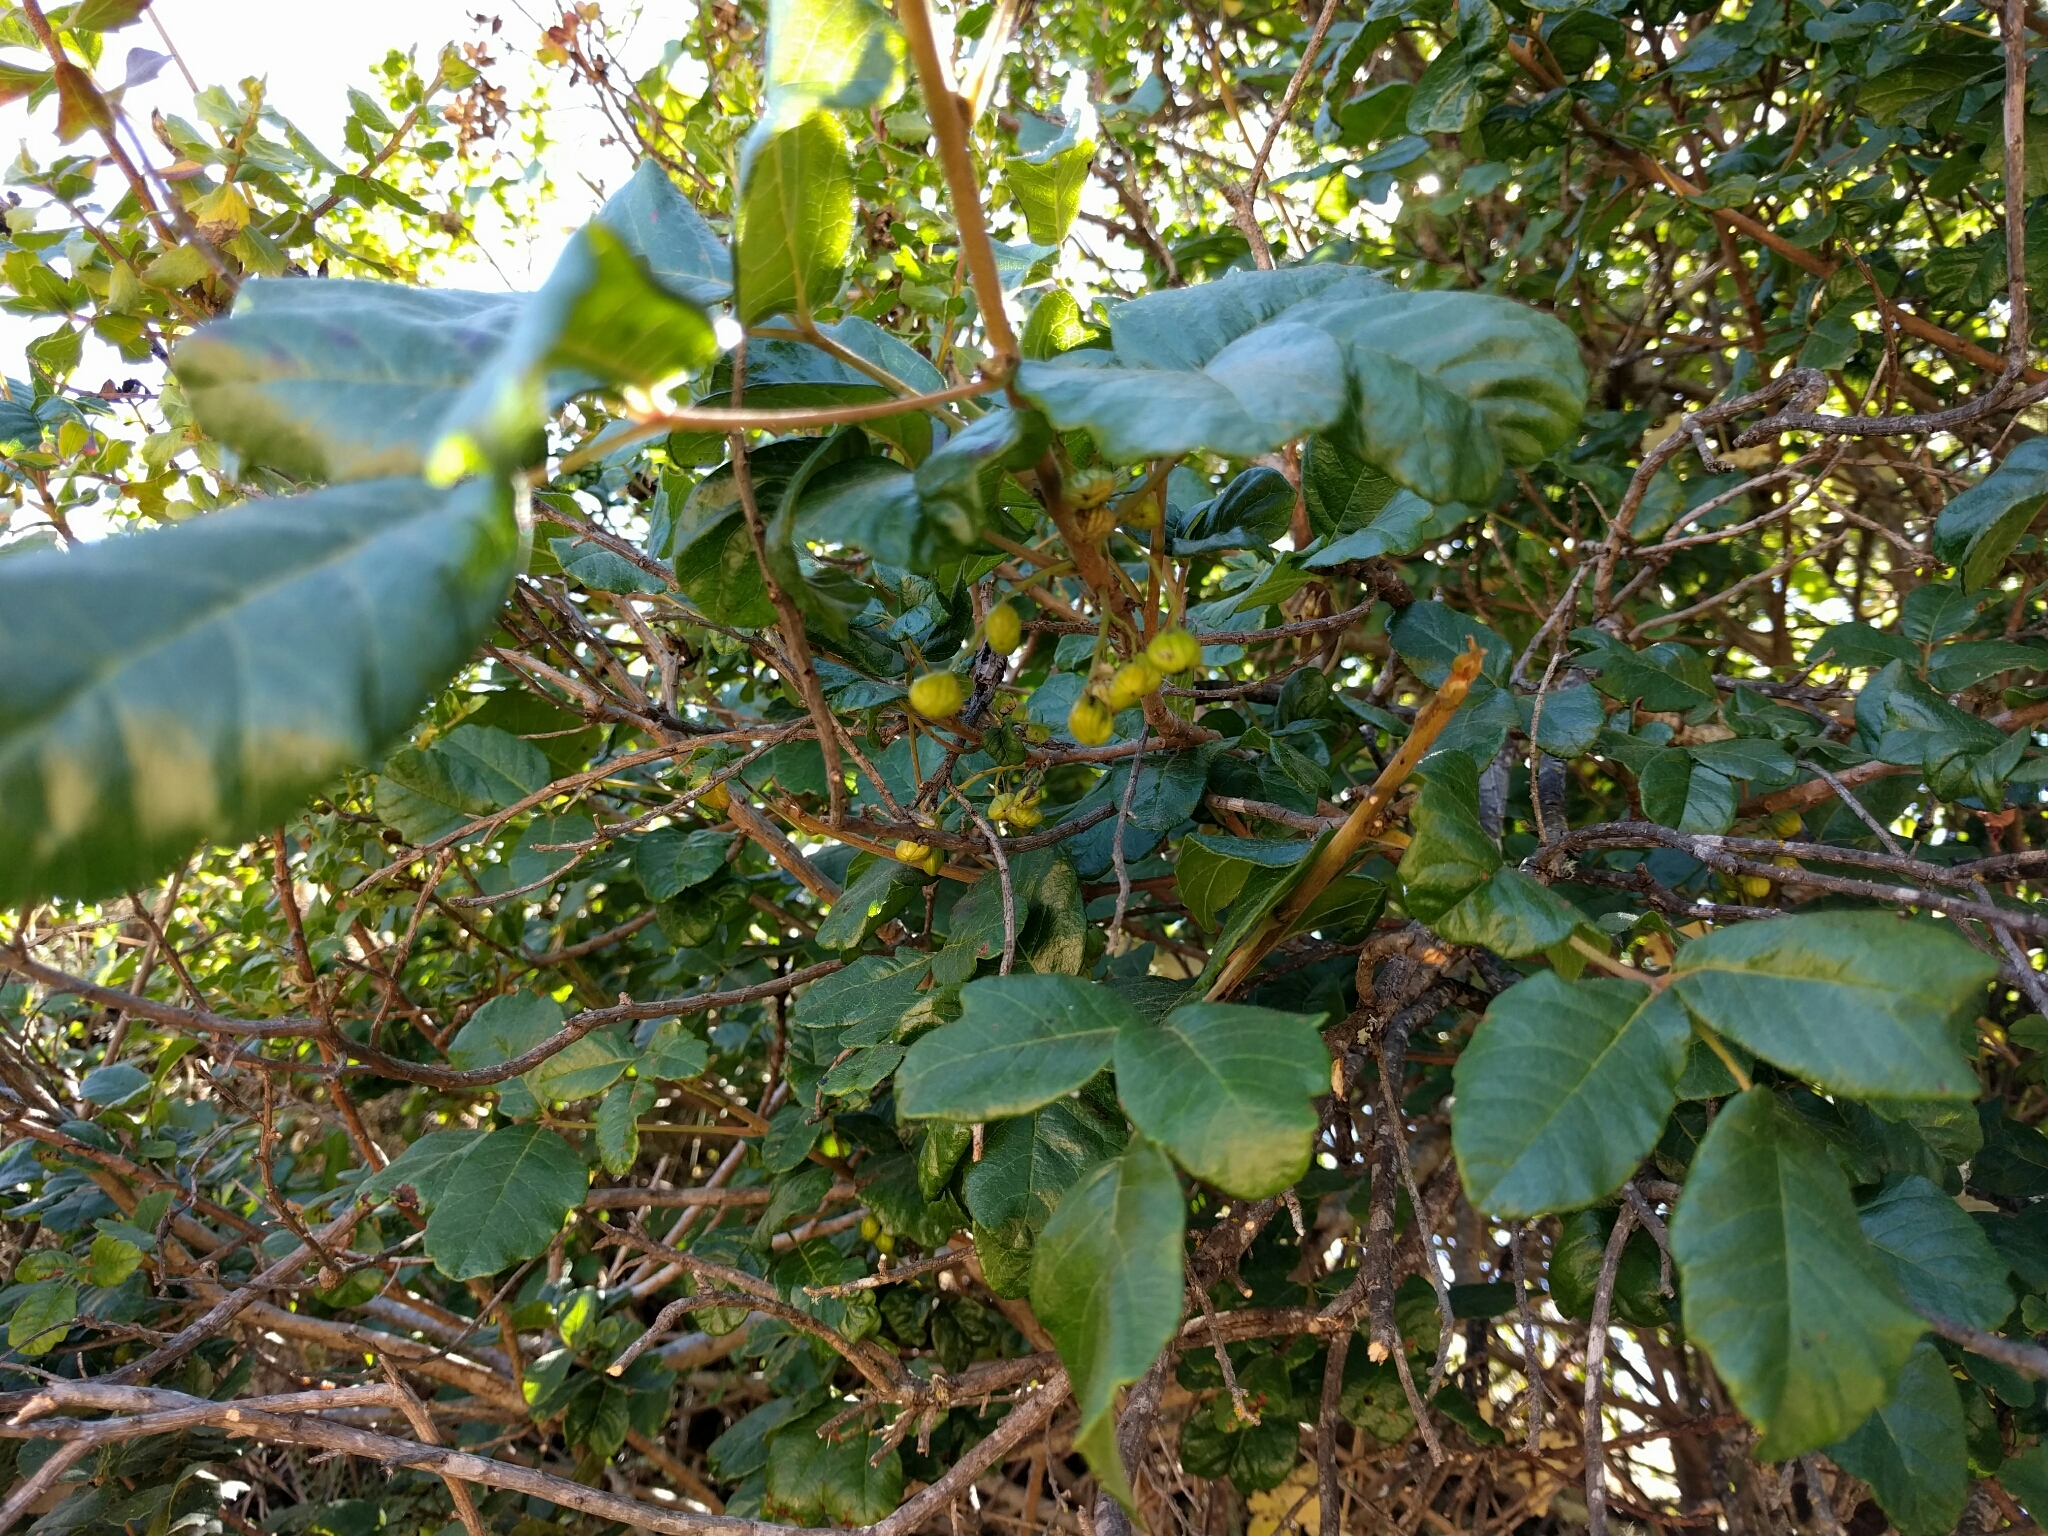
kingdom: Plantae
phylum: Tracheophyta
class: Magnoliopsida
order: Sapindales
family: Anacardiaceae
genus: Toxicodendron
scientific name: Toxicodendron diversilobum
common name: Pacific poison-oak
